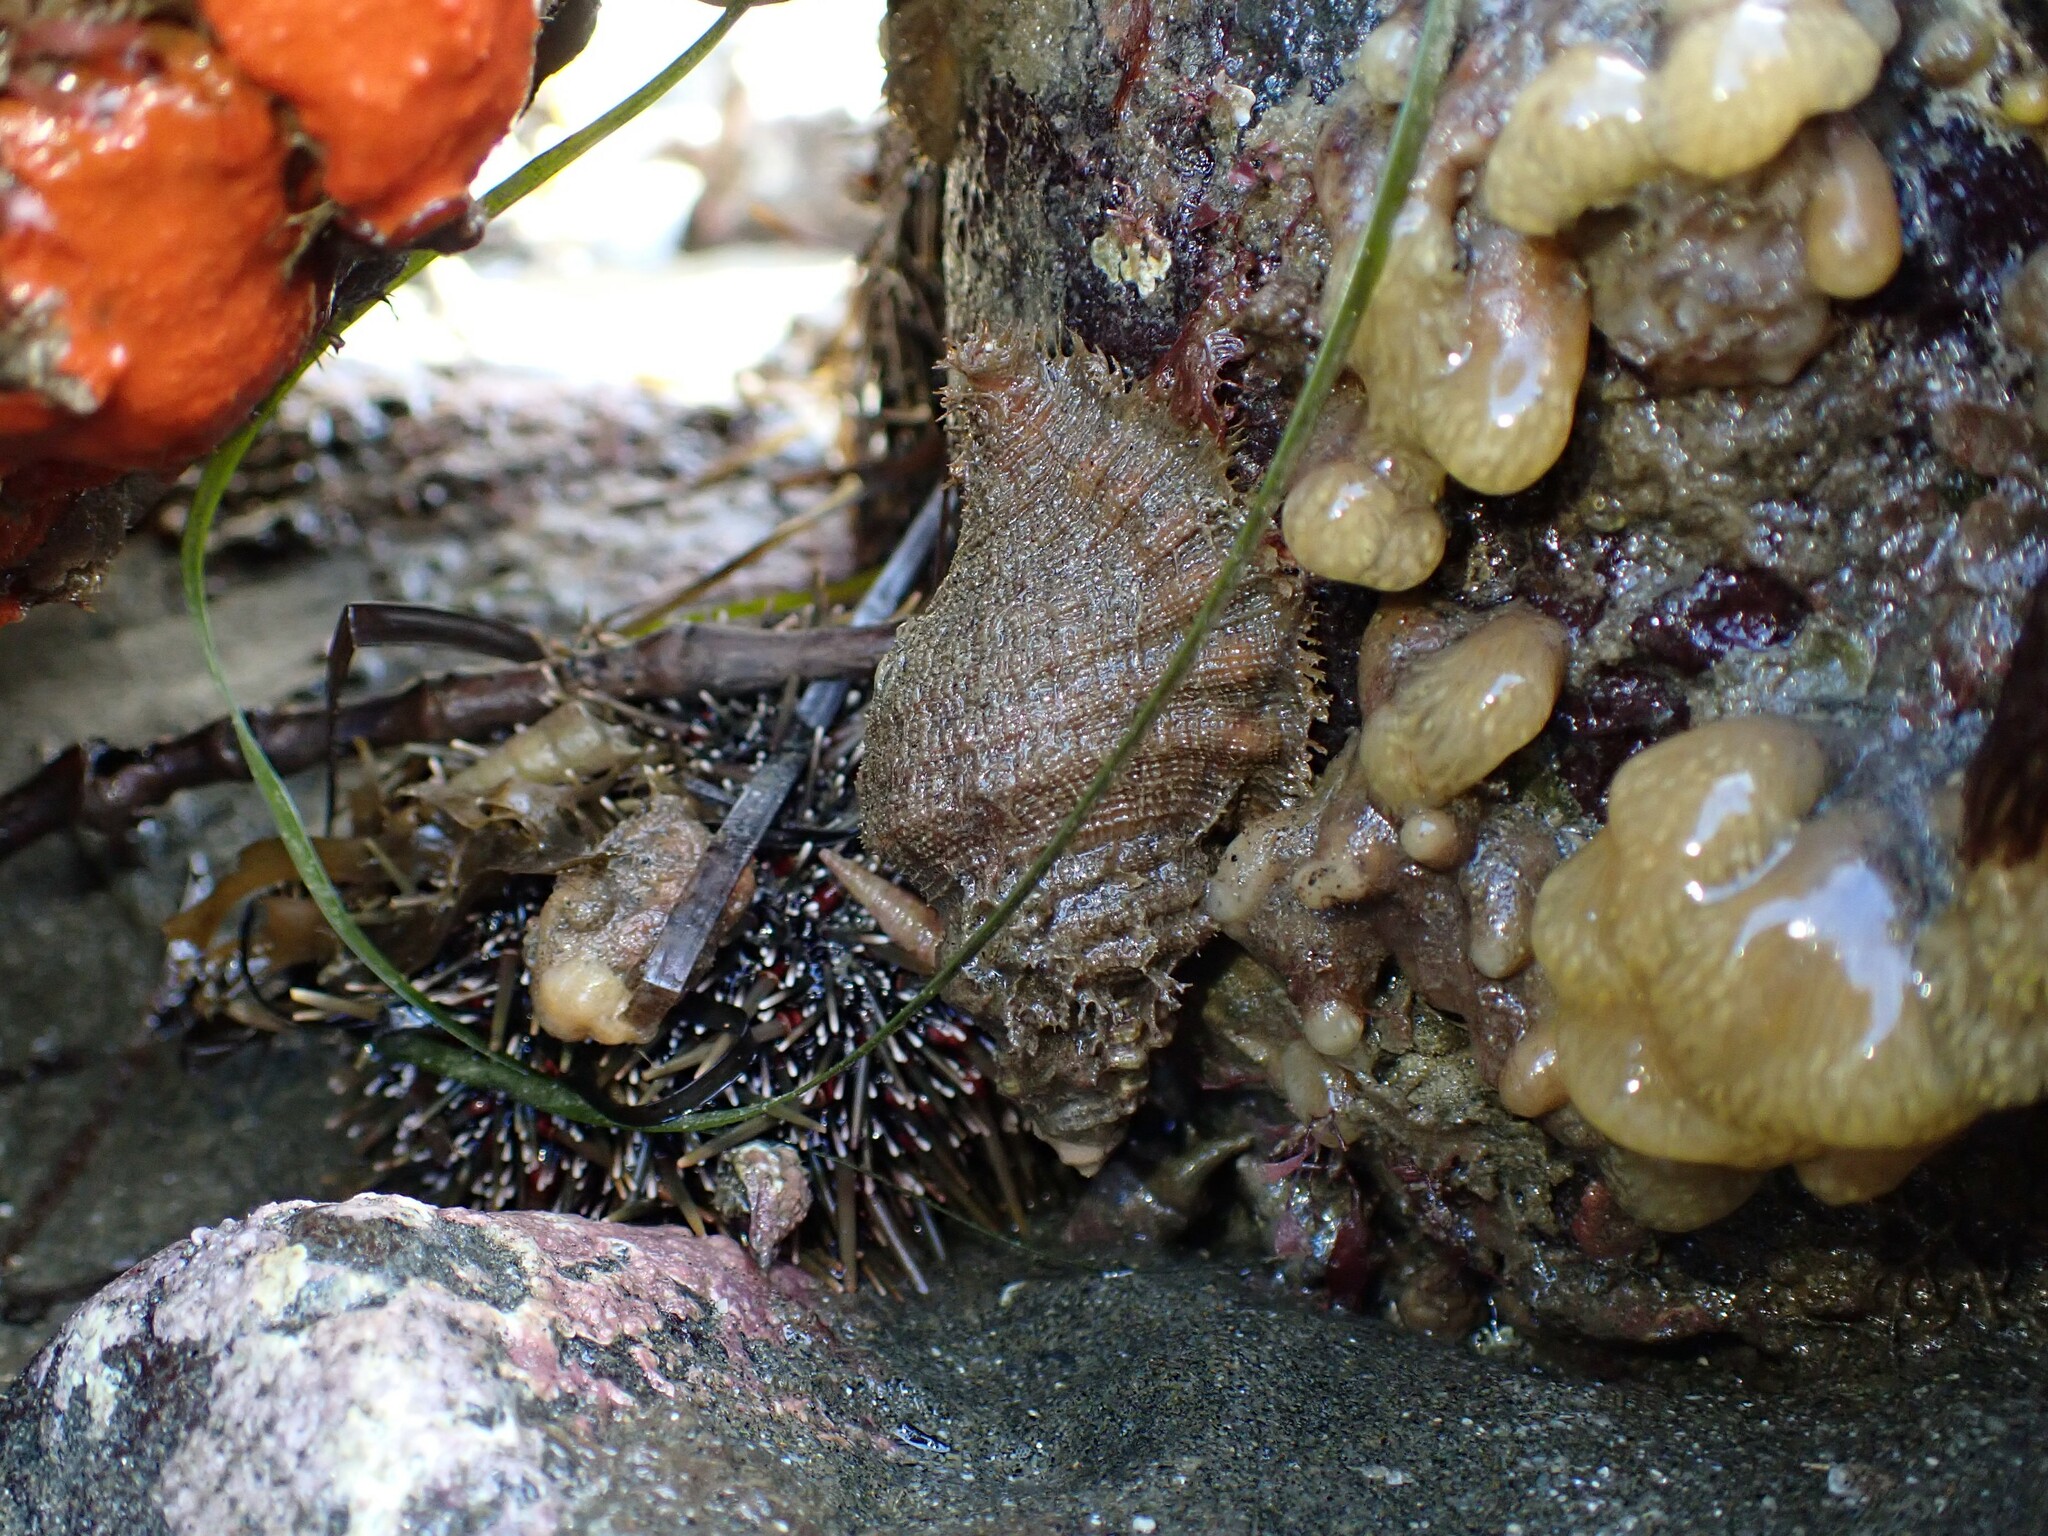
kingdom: Animalia
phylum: Mollusca
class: Gastropoda
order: Littorinimorpha
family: Cymatiidae
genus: Cabestana
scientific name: Cabestana tabulata
